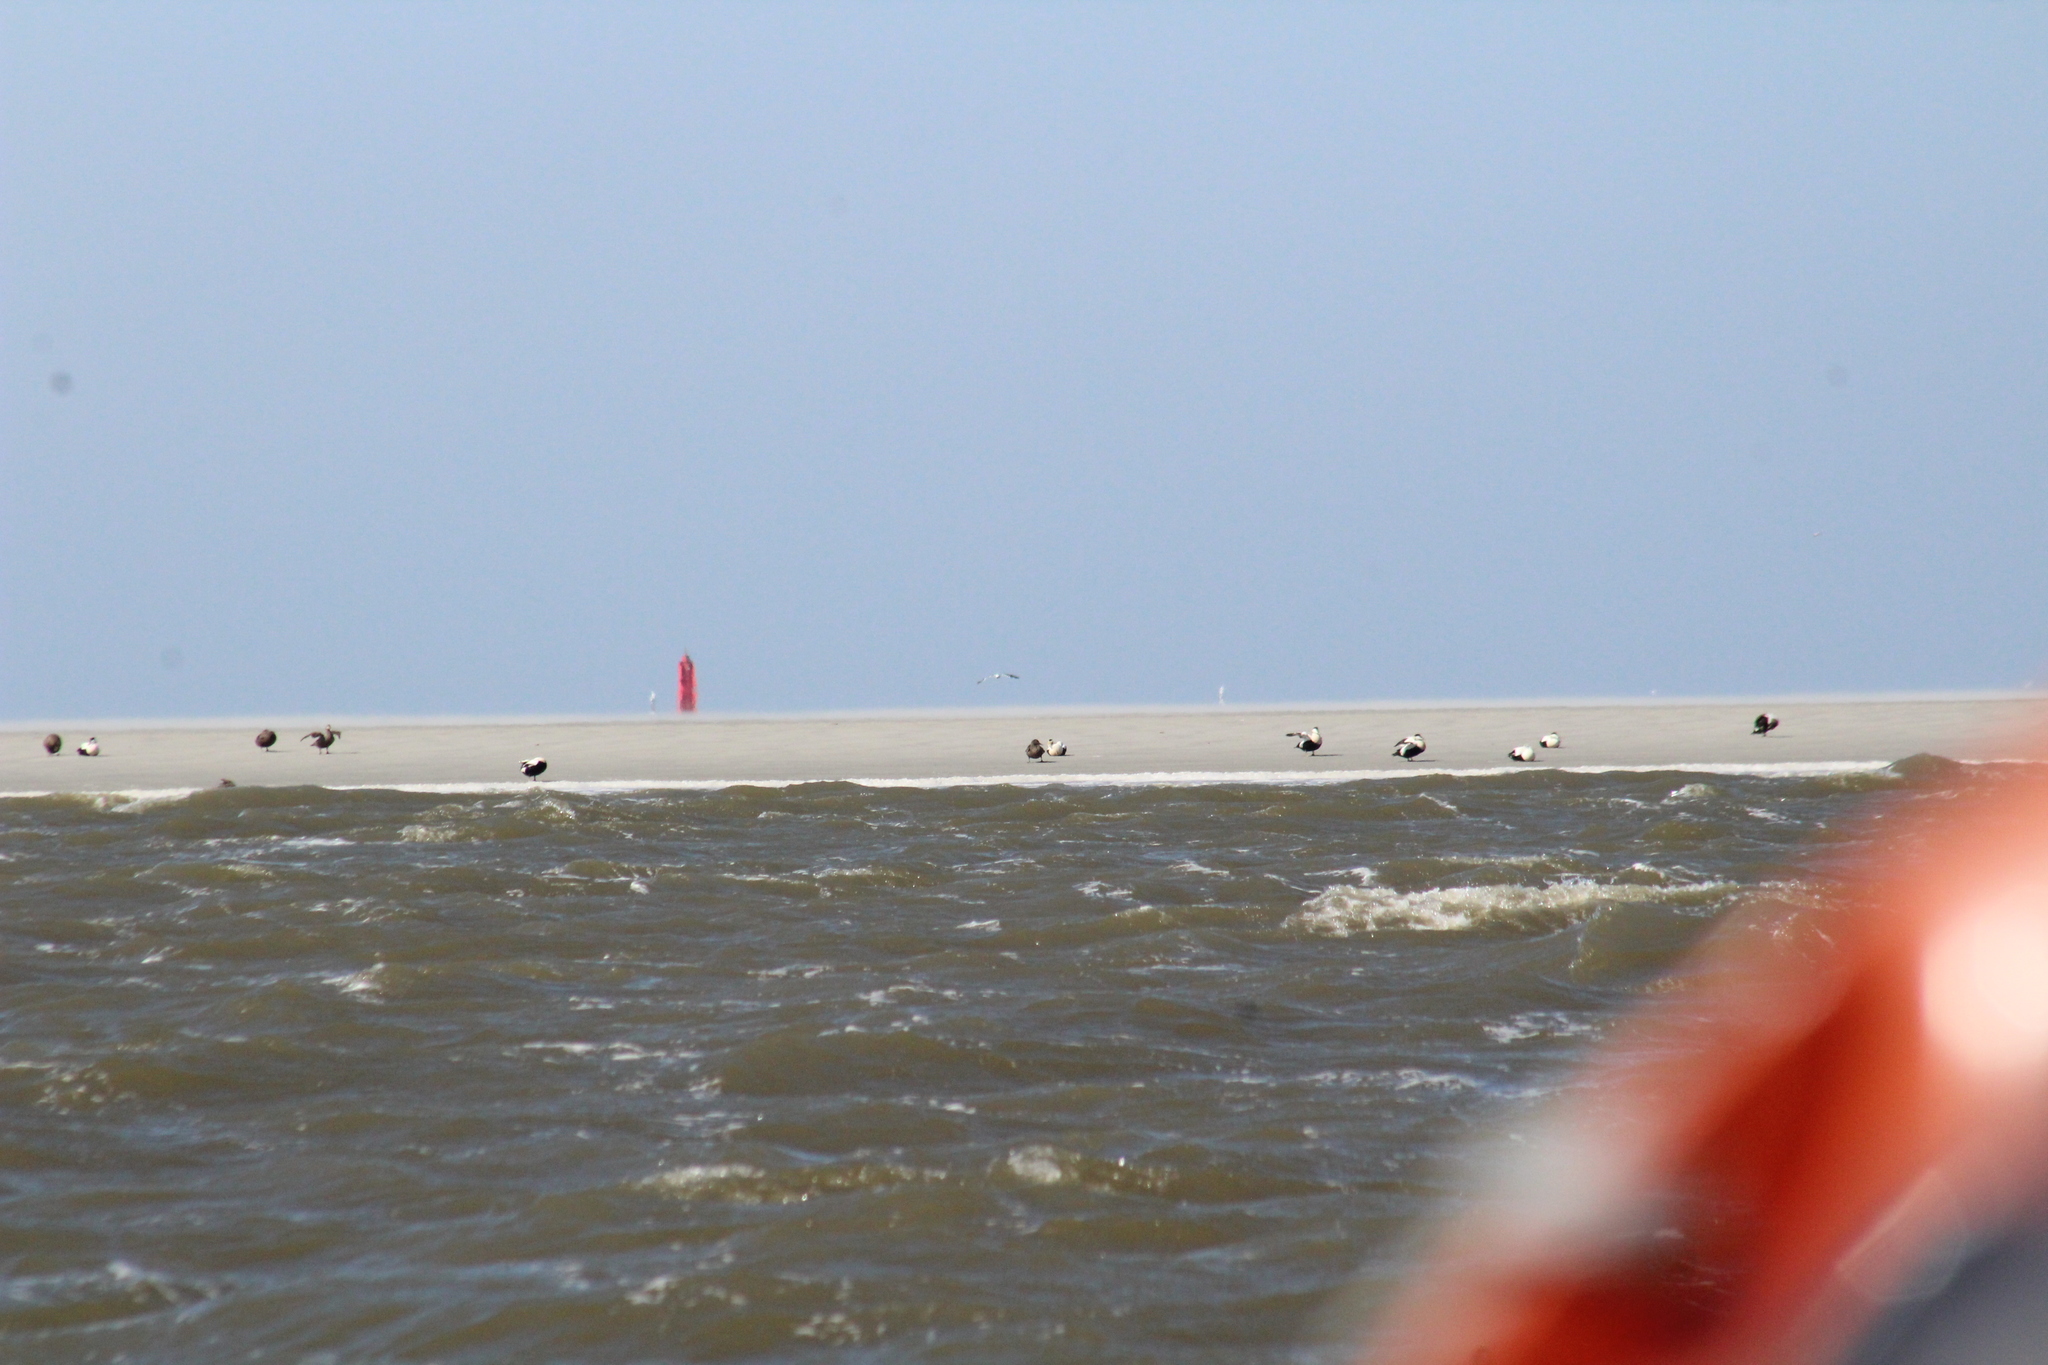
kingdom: Animalia
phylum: Chordata
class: Aves
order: Anseriformes
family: Anatidae
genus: Somateria
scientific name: Somateria mollissima
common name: Common eider
